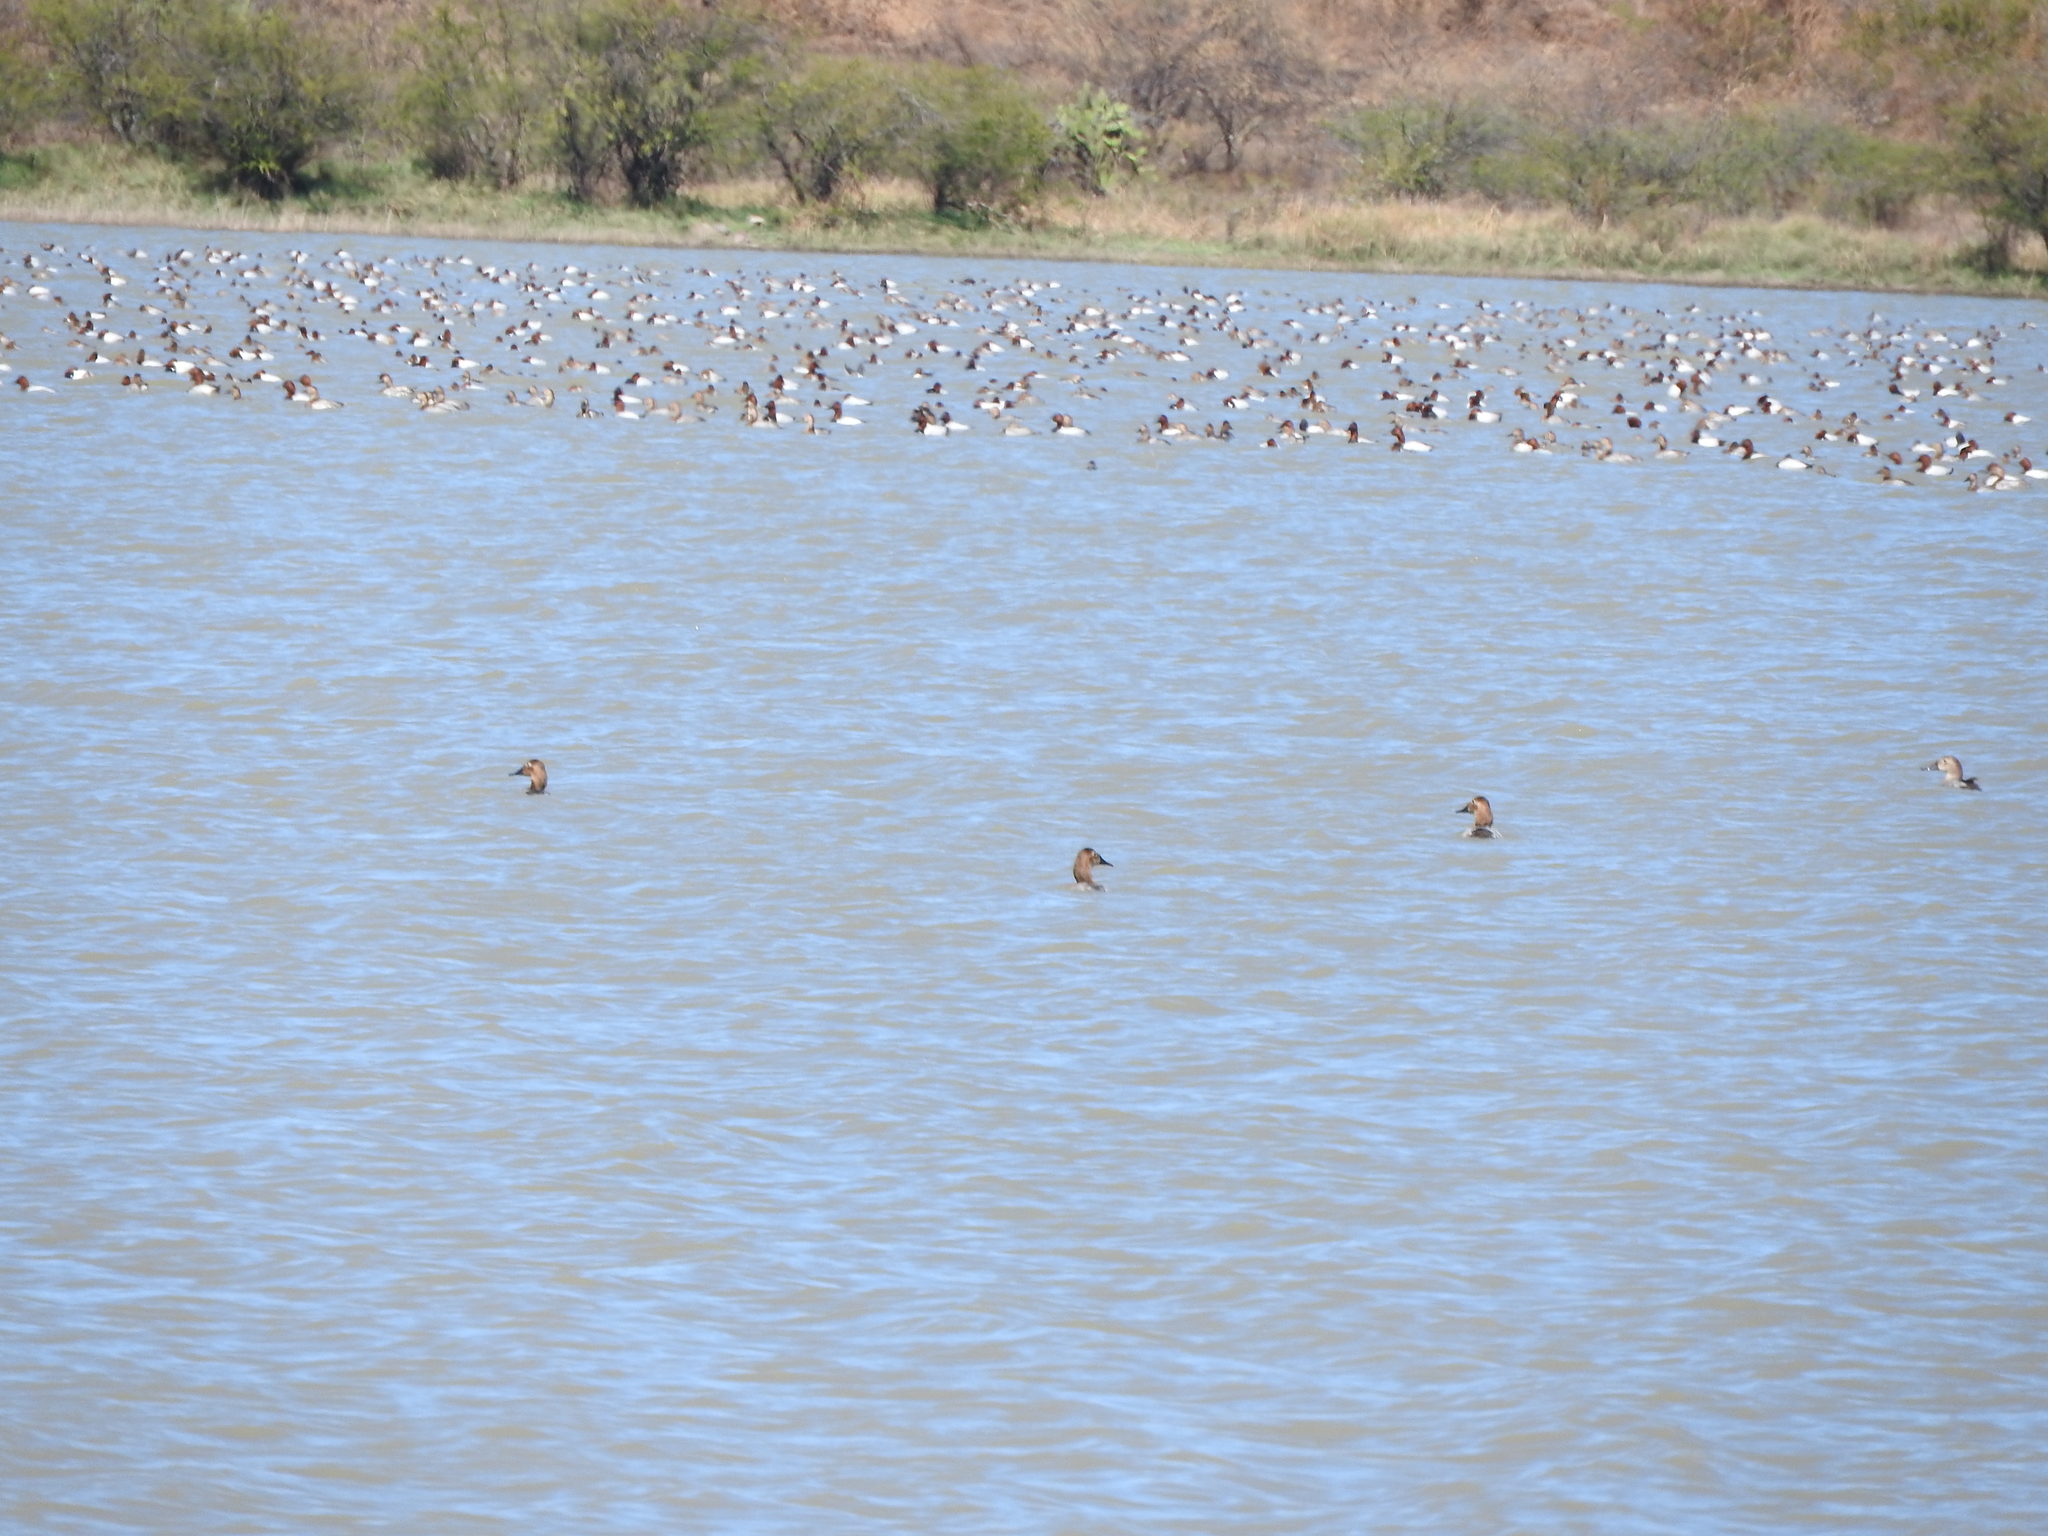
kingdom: Animalia
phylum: Chordata
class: Aves
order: Anseriformes
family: Anatidae
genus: Aythya
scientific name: Aythya valisineria
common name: Canvasback
